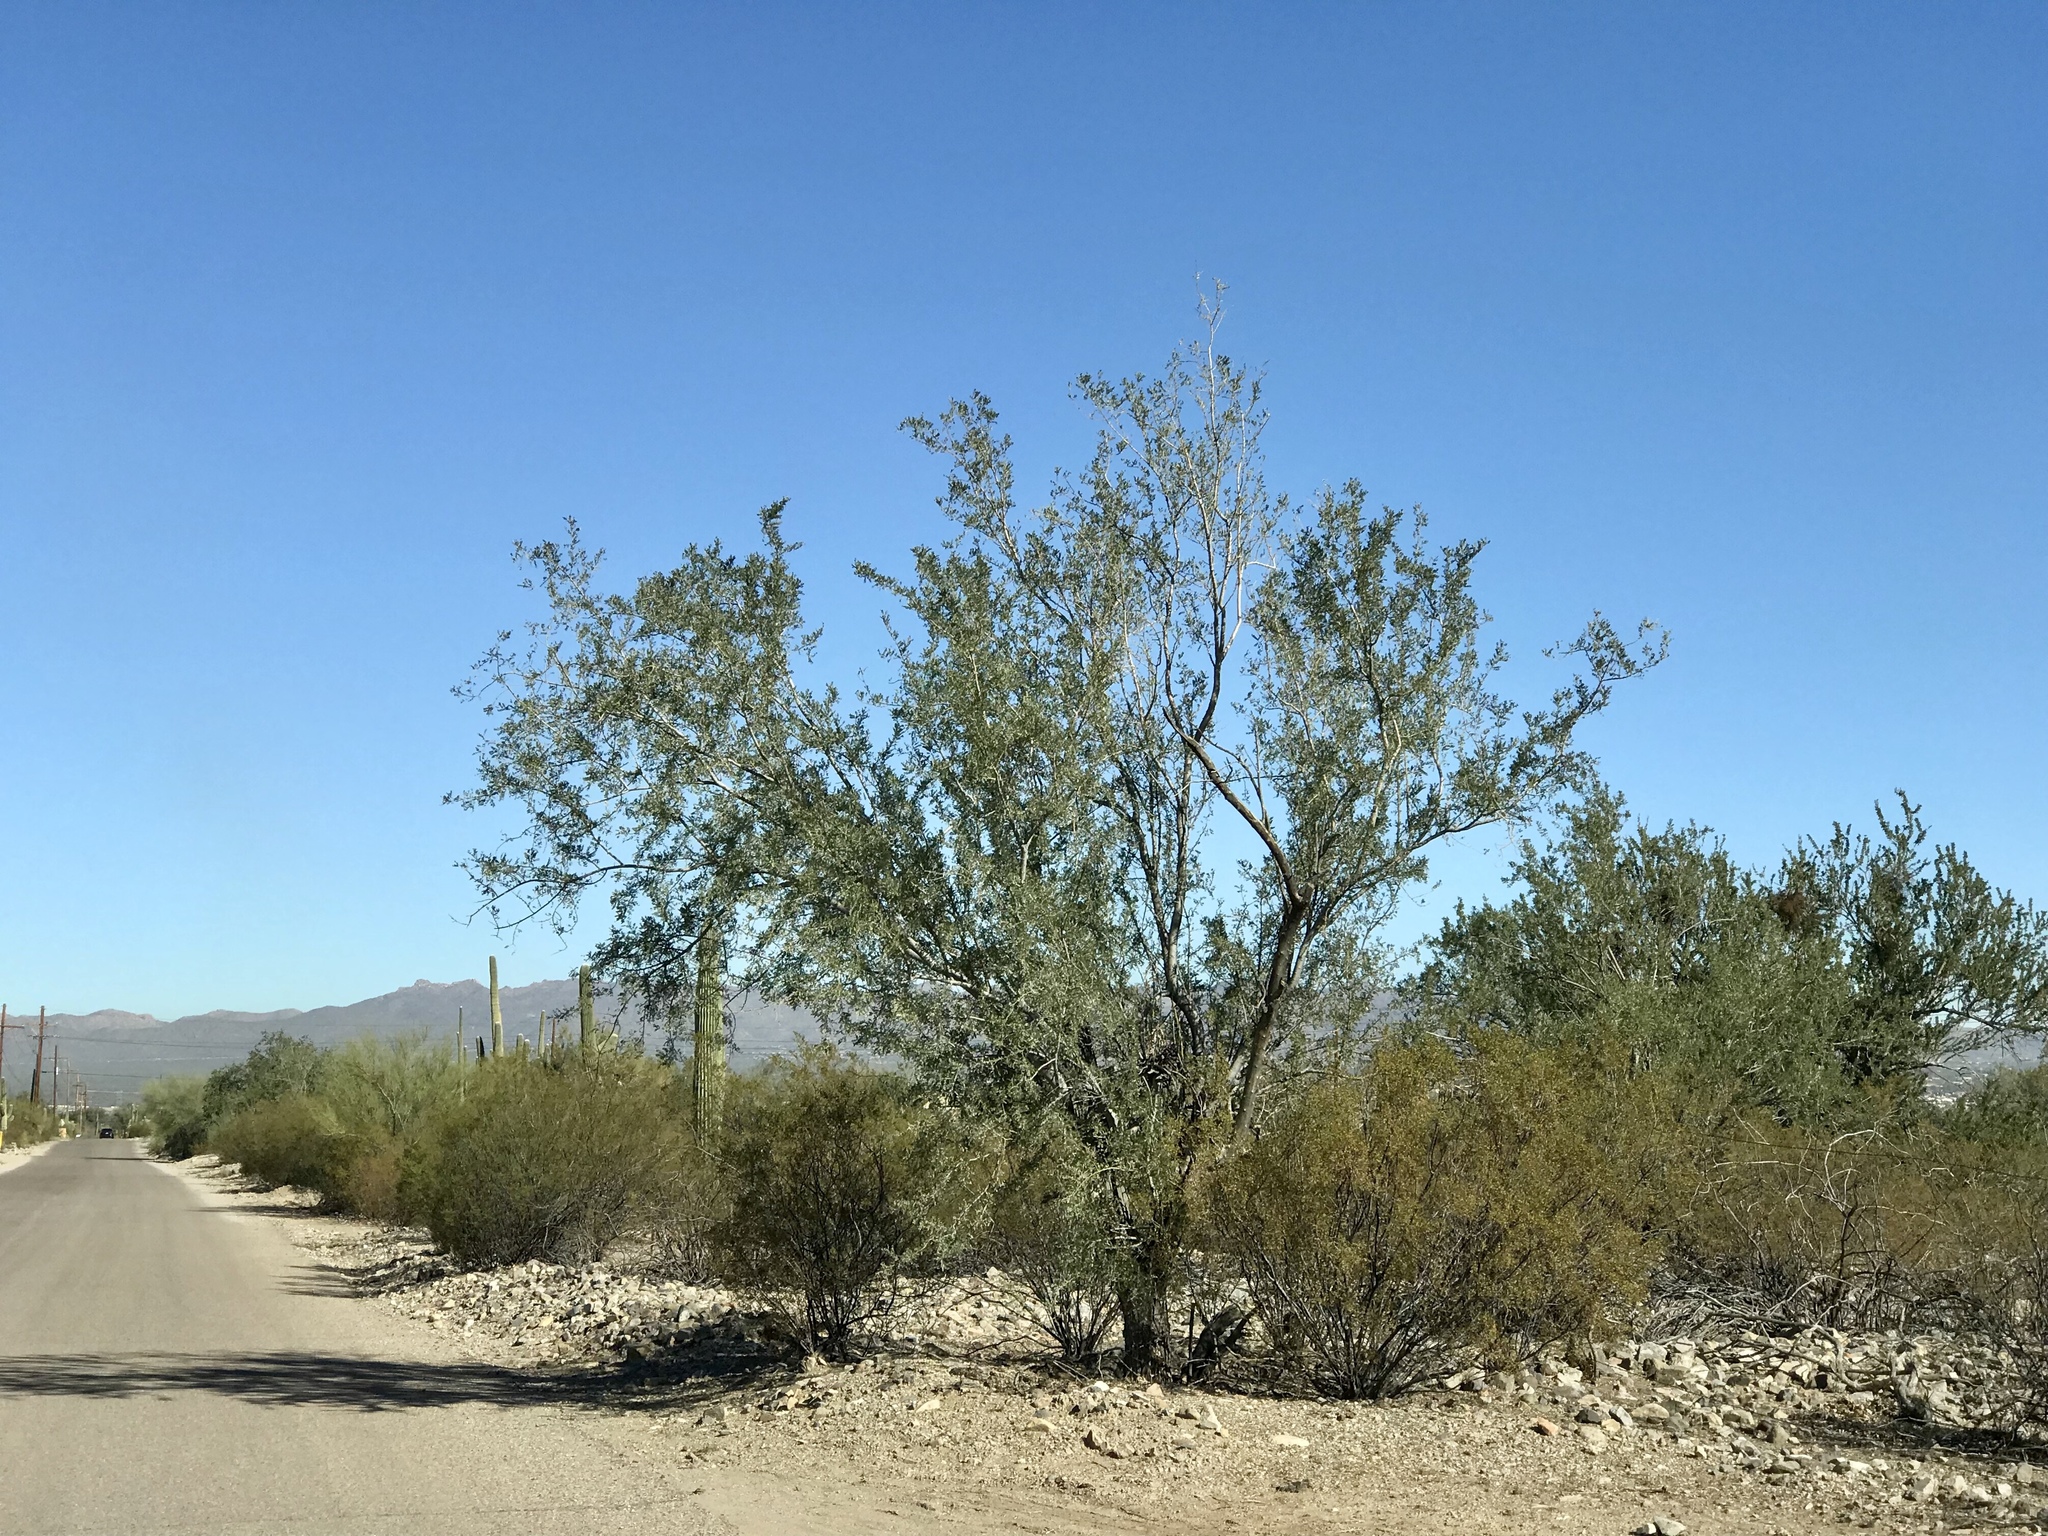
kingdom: Plantae
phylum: Tracheophyta
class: Magnoliopsida
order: Fabales
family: Fabaceae
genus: Olneya
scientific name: Olneya tesota
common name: Desert ironwood
